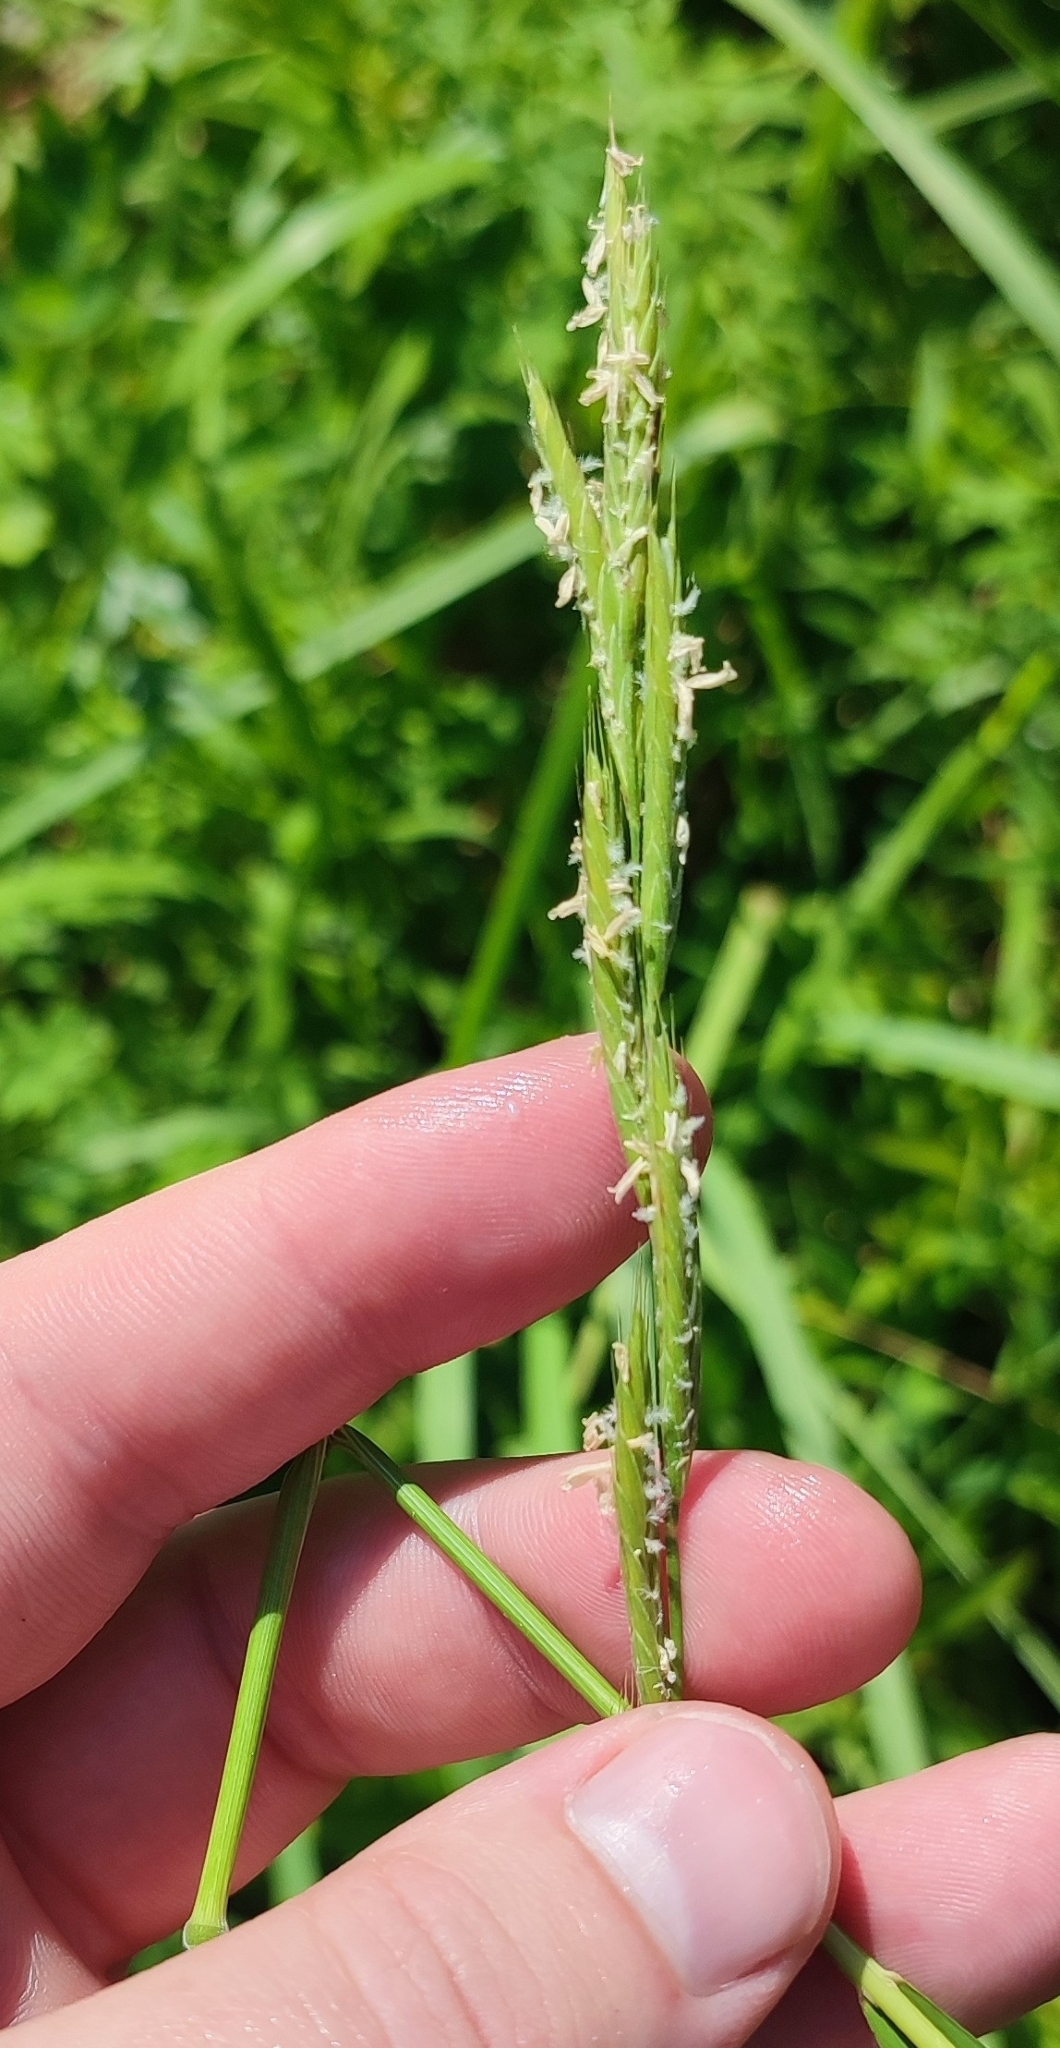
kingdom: Plantae
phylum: Tracheophyta
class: Liliopsida
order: Poales
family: Poaceae
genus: Brachypodium
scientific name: Brachypodium pinnatum
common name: Tor grass
